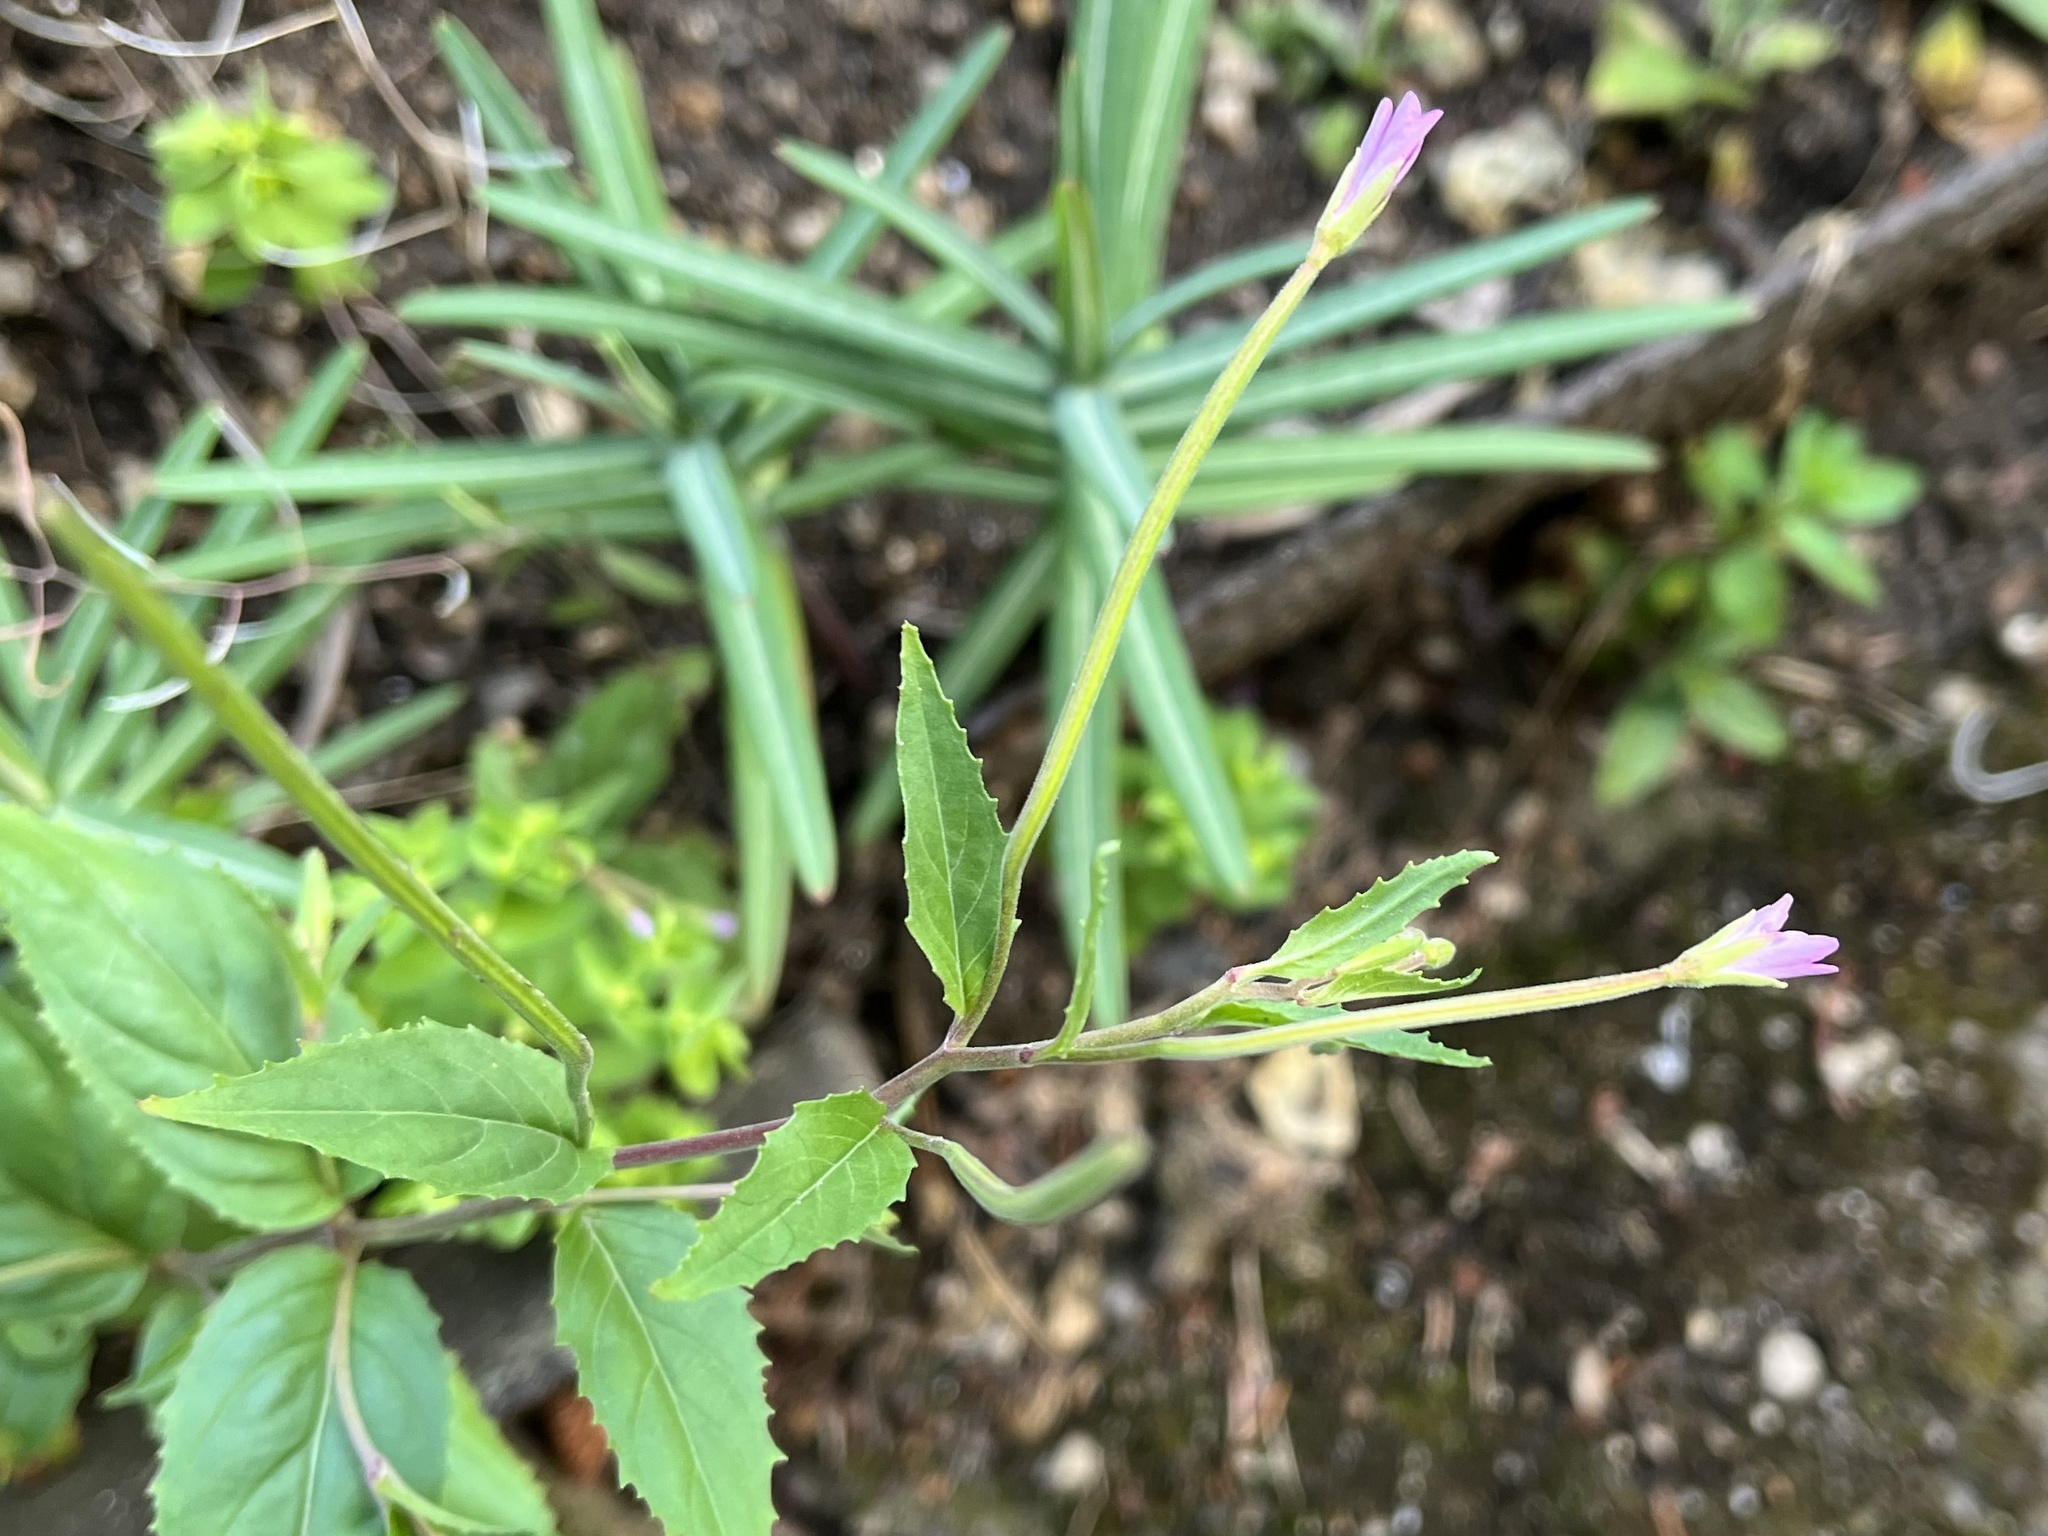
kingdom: Plantae
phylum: Tracheophyta
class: Magnoliopsida
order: Myrtales
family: Onagraceae
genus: Epilobium
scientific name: Epilobium montanum
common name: Broad-leaved willowherb
